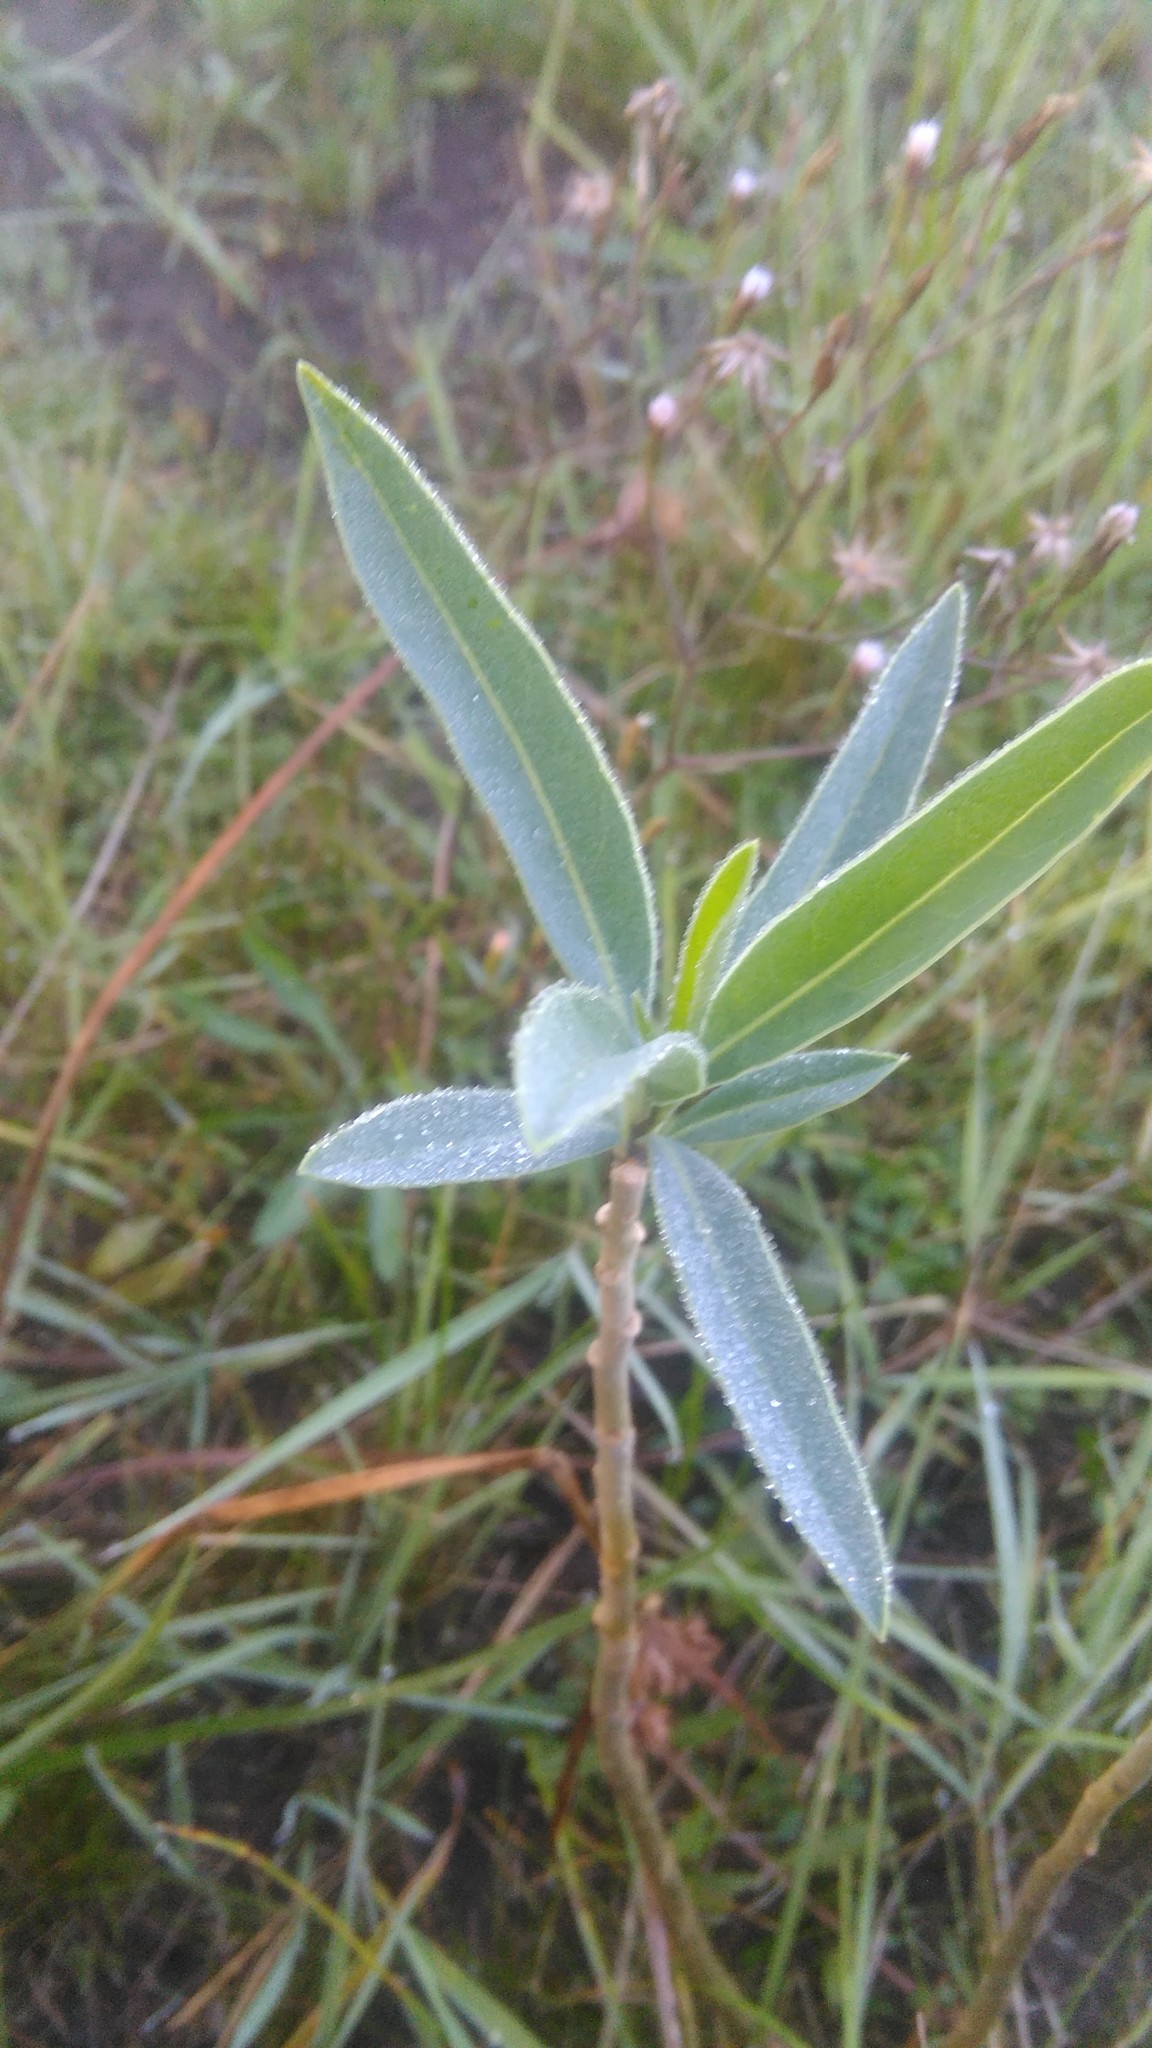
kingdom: Plantae
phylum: Tracheophyta
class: Magnoliopsida
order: Solanales
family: Solanaceae
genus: Solanum
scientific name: Solanum glaucophyllum
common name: Waxyleaf nightshade
